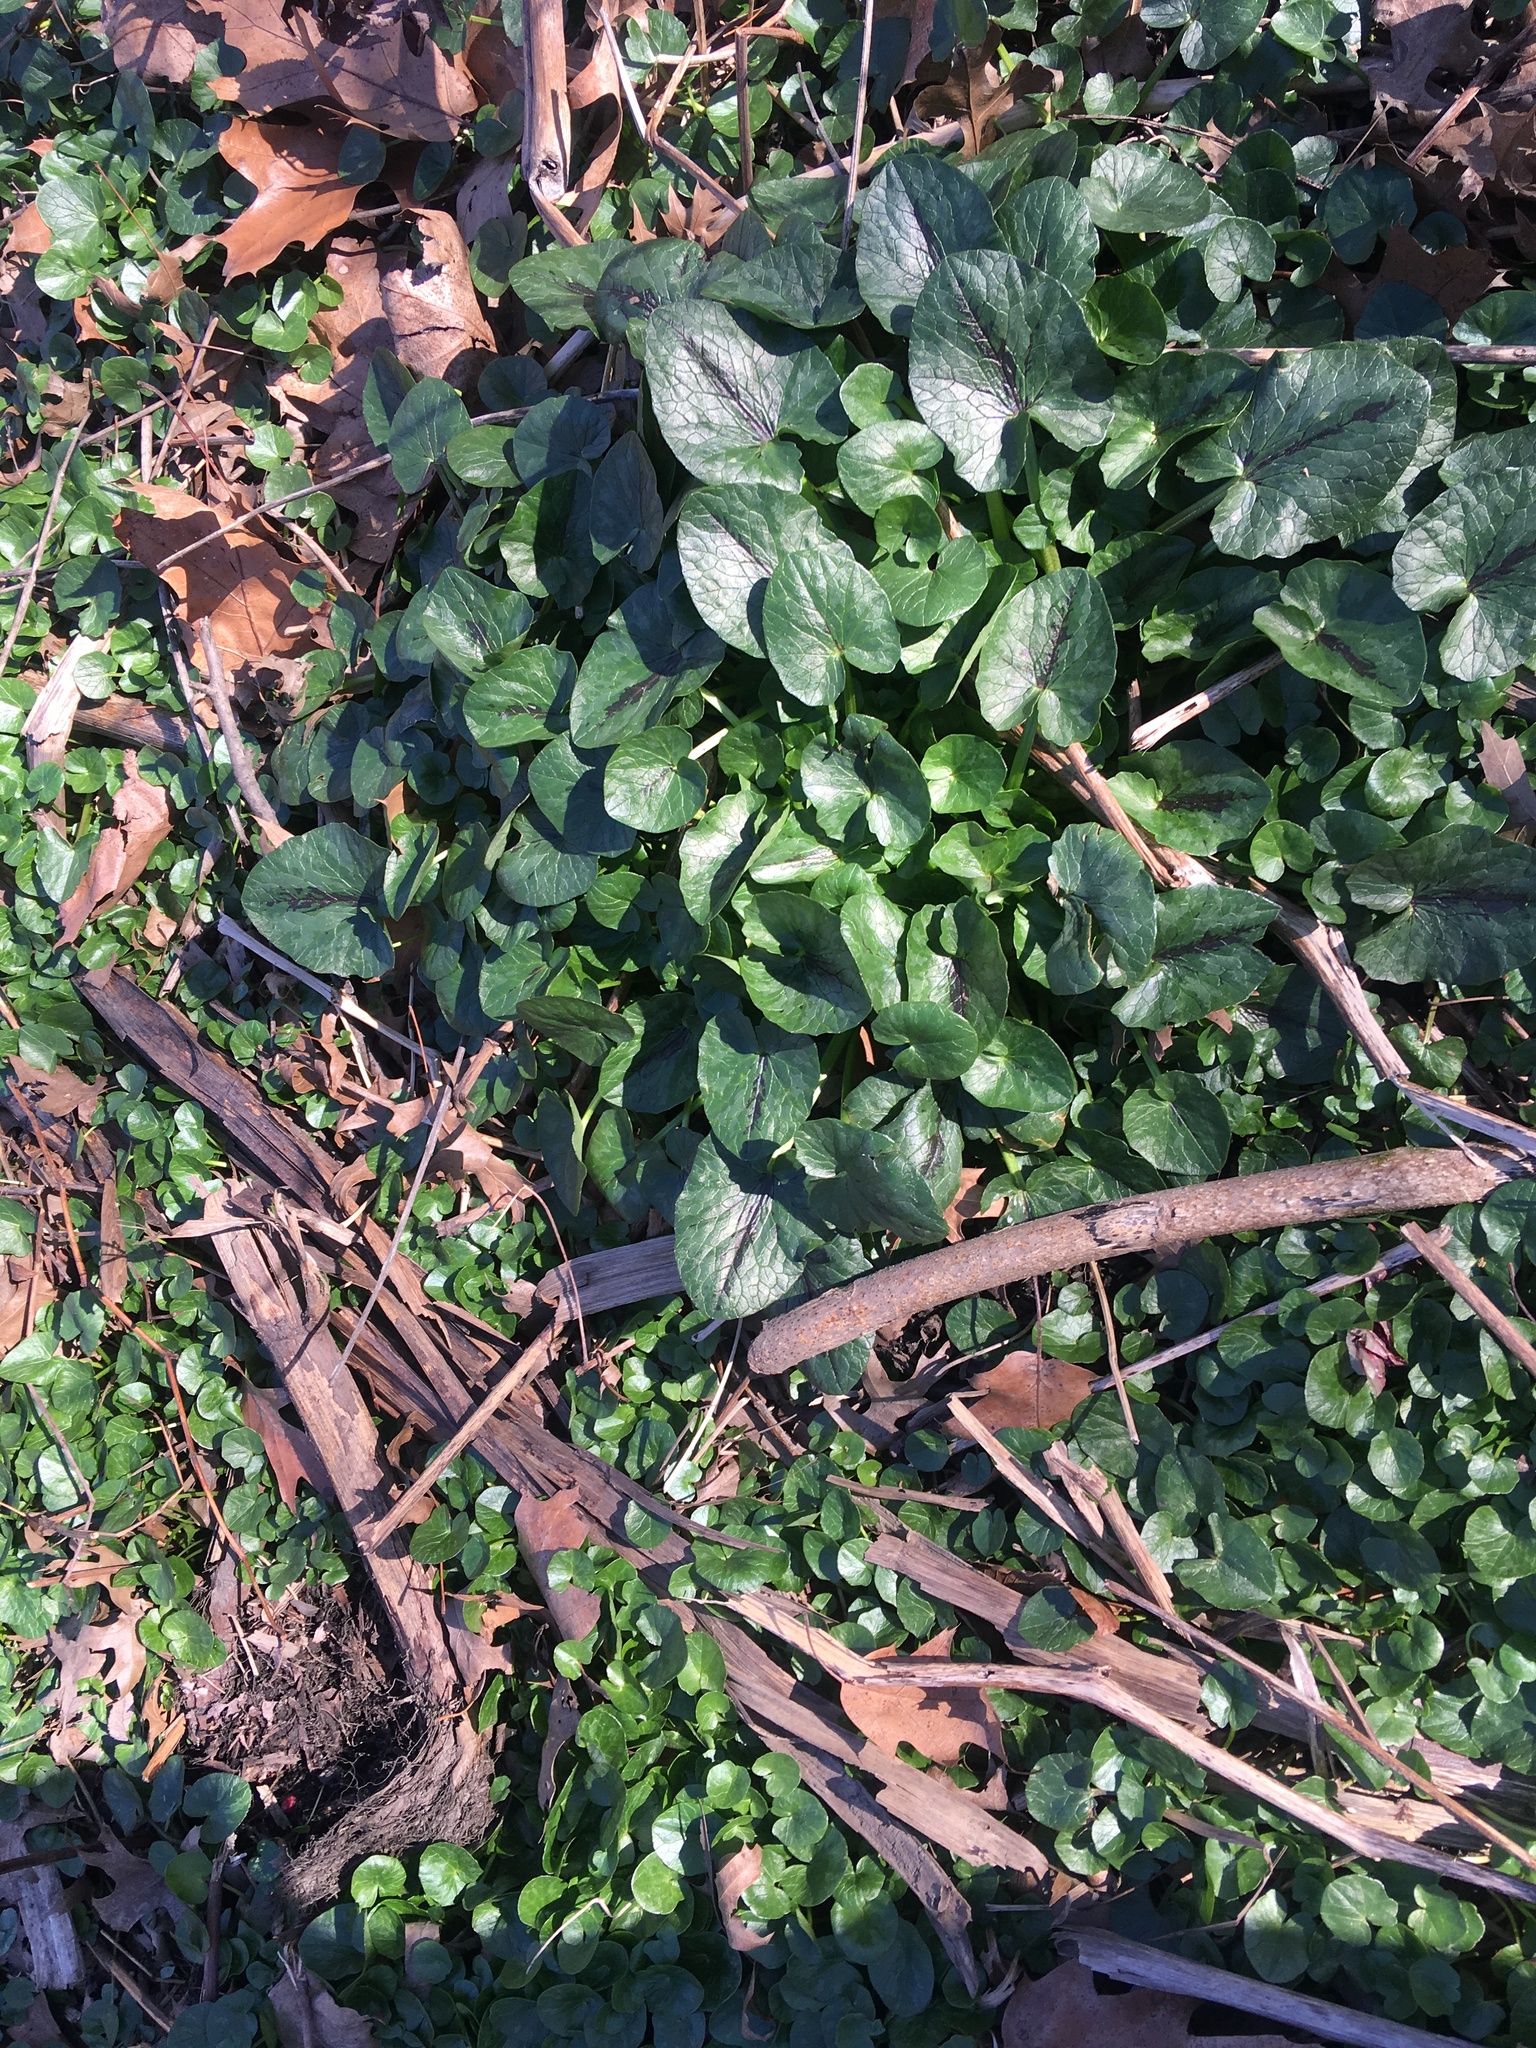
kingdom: Plantae
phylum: Tracheophyta
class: Magnoliopsida
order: Ranunculales
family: Ranunculaceae
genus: Ficaria
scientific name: Ficaria verna
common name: Lesser celandine
